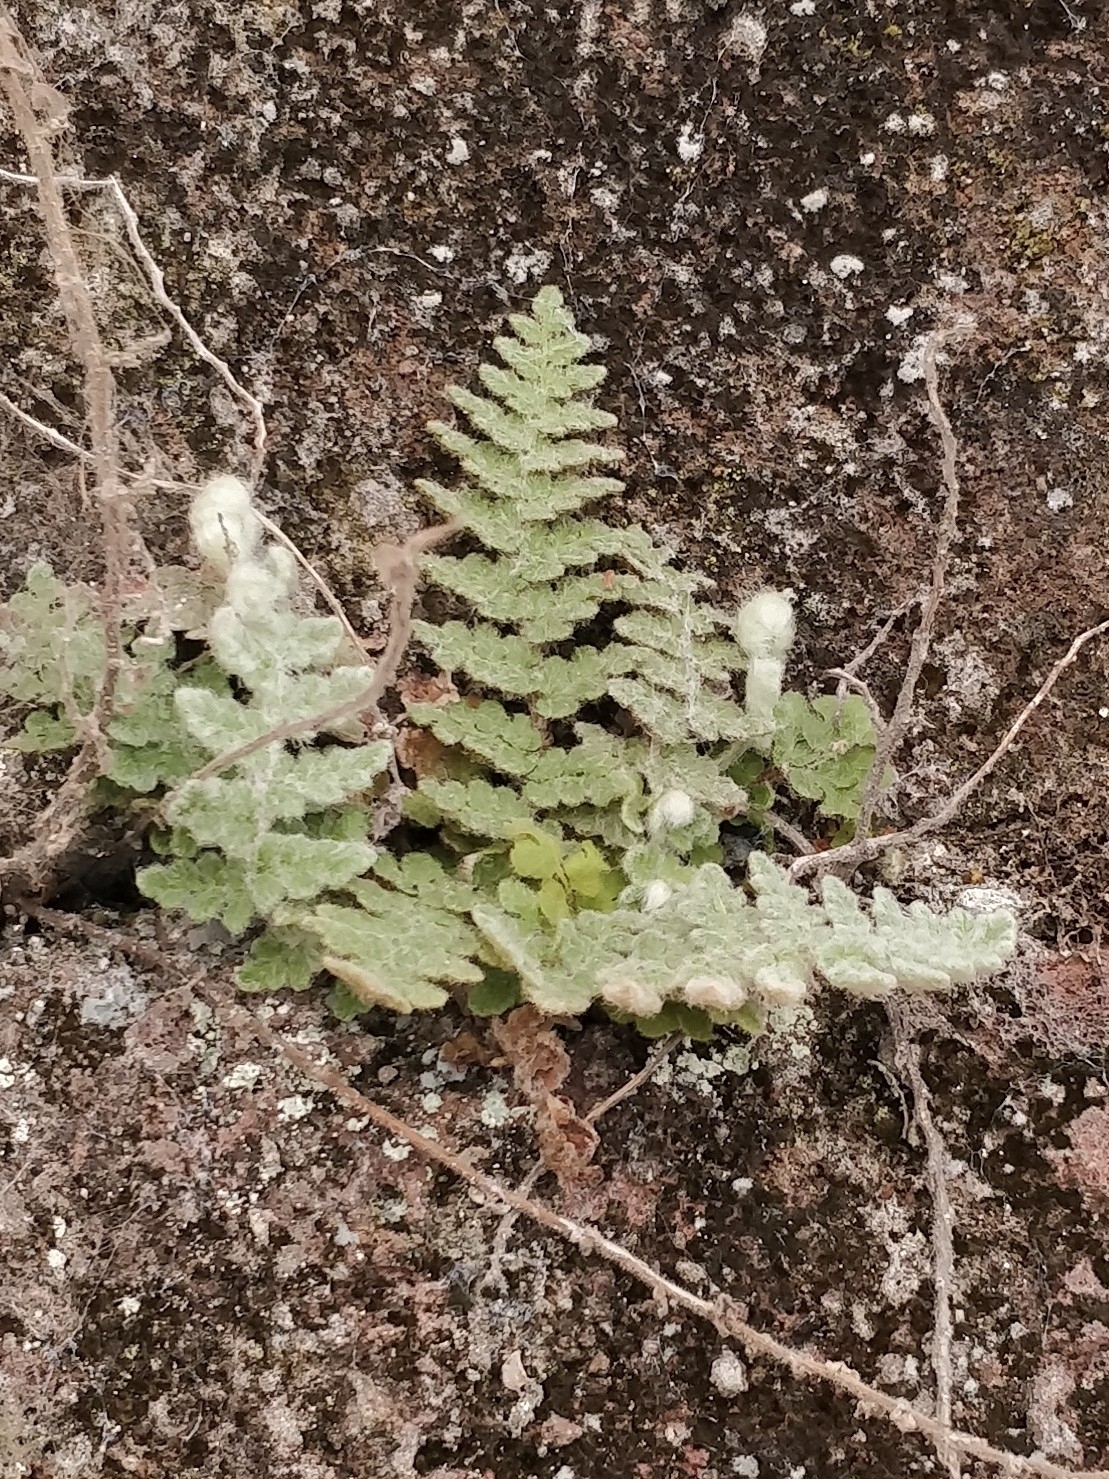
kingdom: Plantae
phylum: Tracheophyta
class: Polypodiopsida
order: Polypodiales
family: Pteridaceae
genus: Cosentinia
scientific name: Cosentinia vellea
